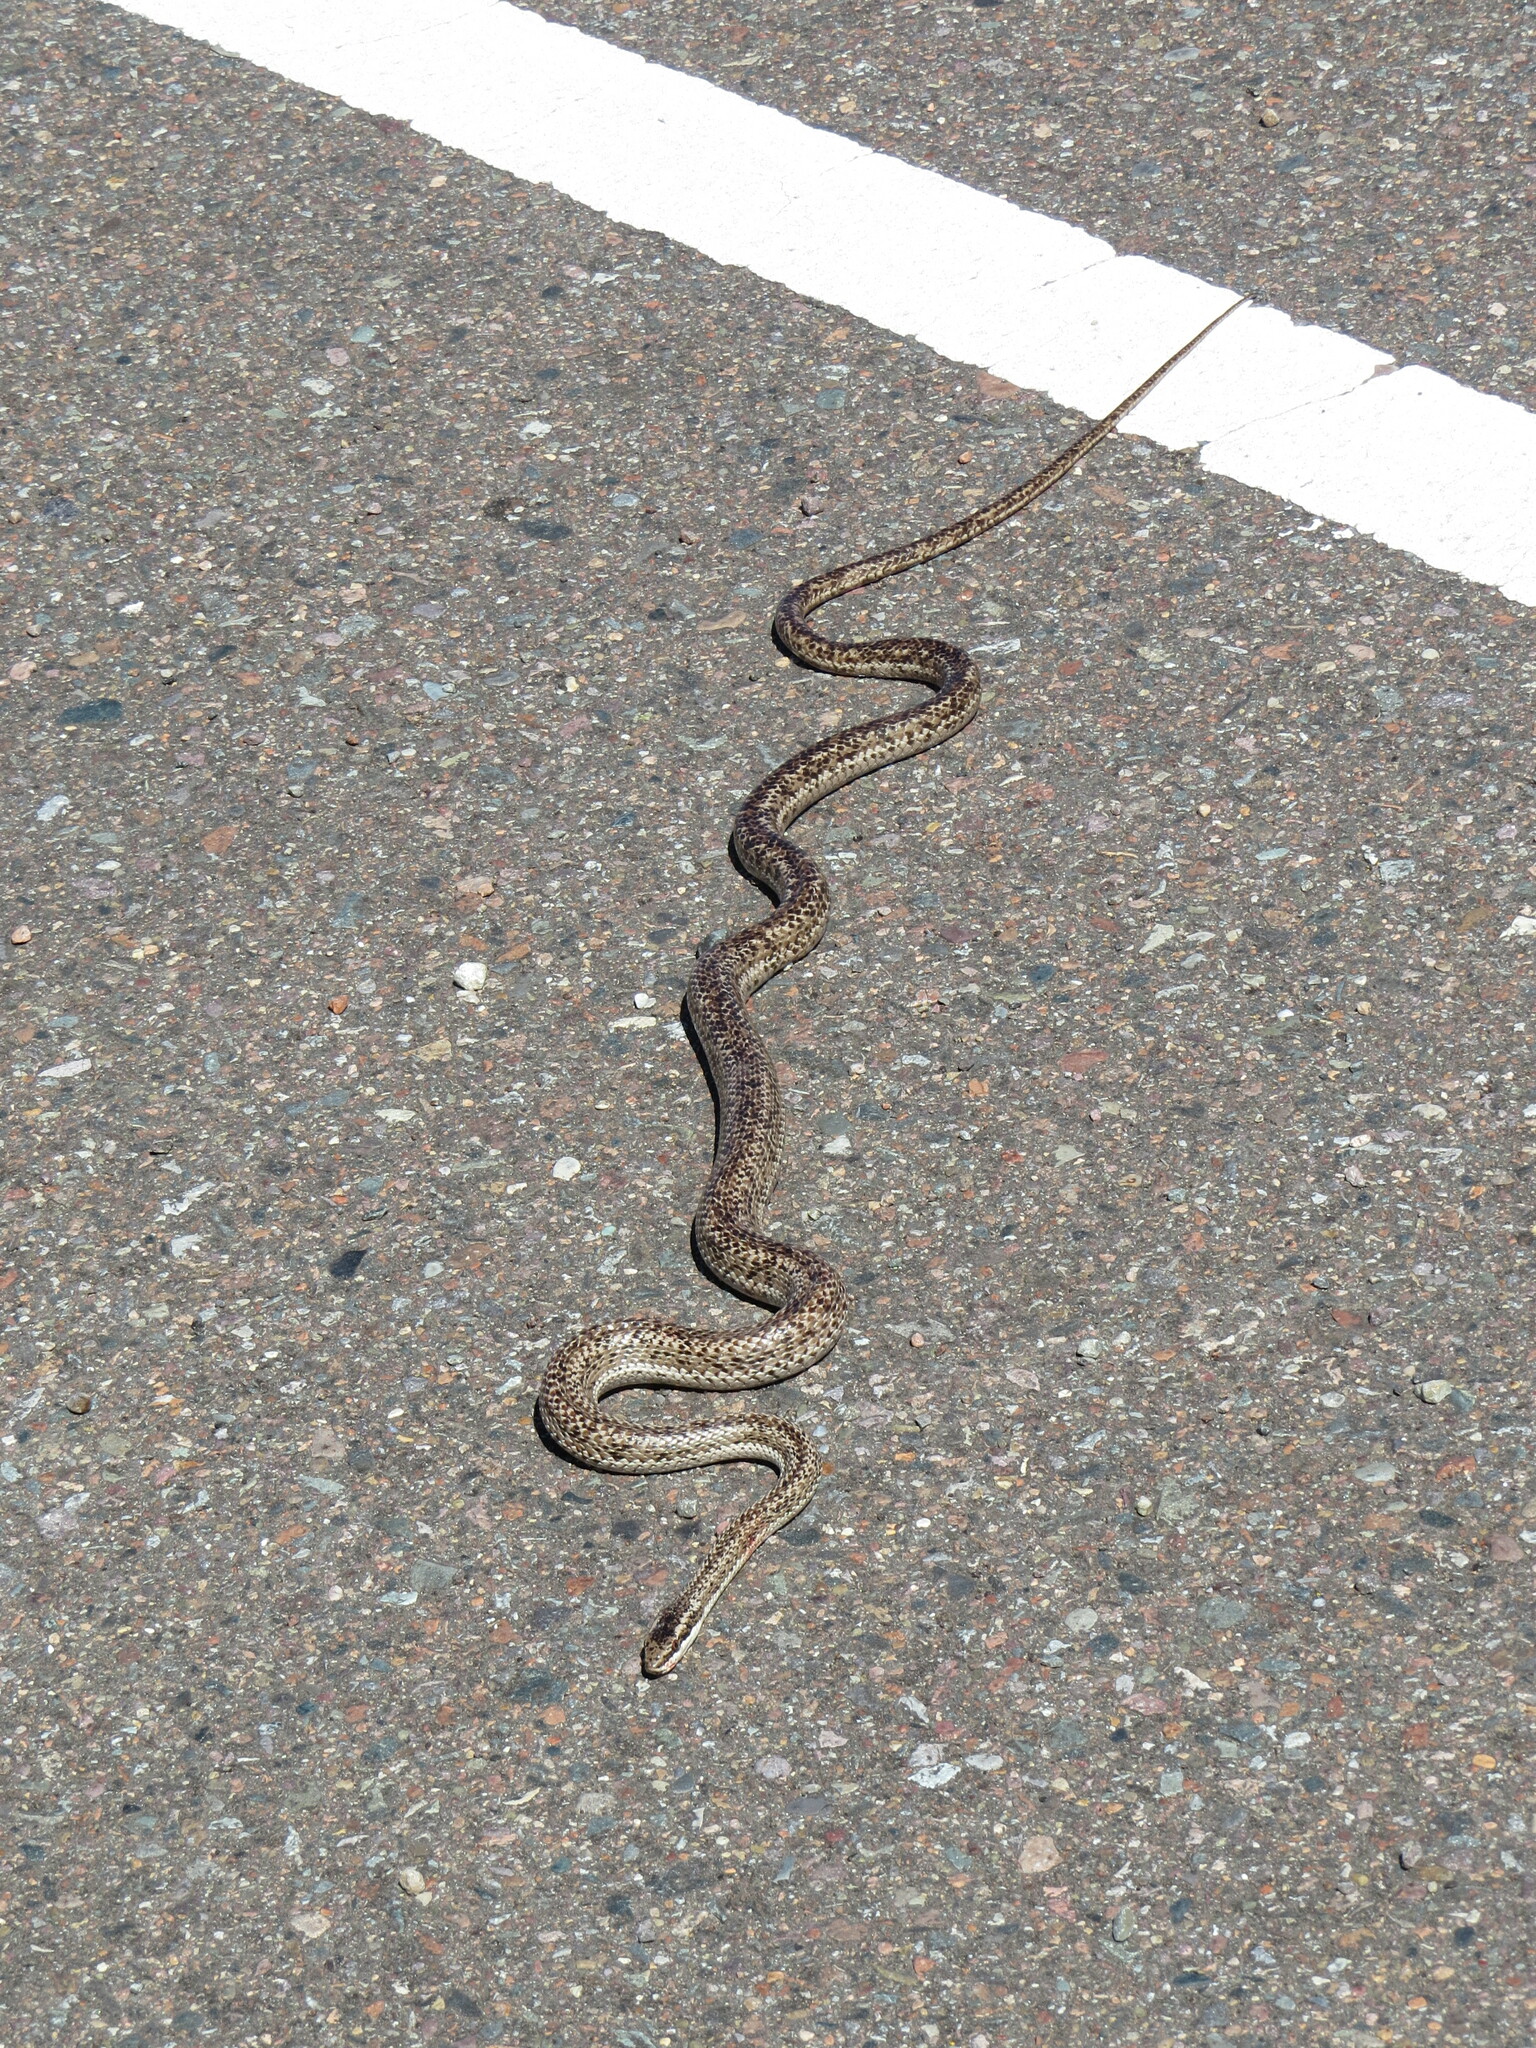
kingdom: Animalia
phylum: Chordata
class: Squamata
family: Colubridae
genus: Philodryas
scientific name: Philodryas trilineata
